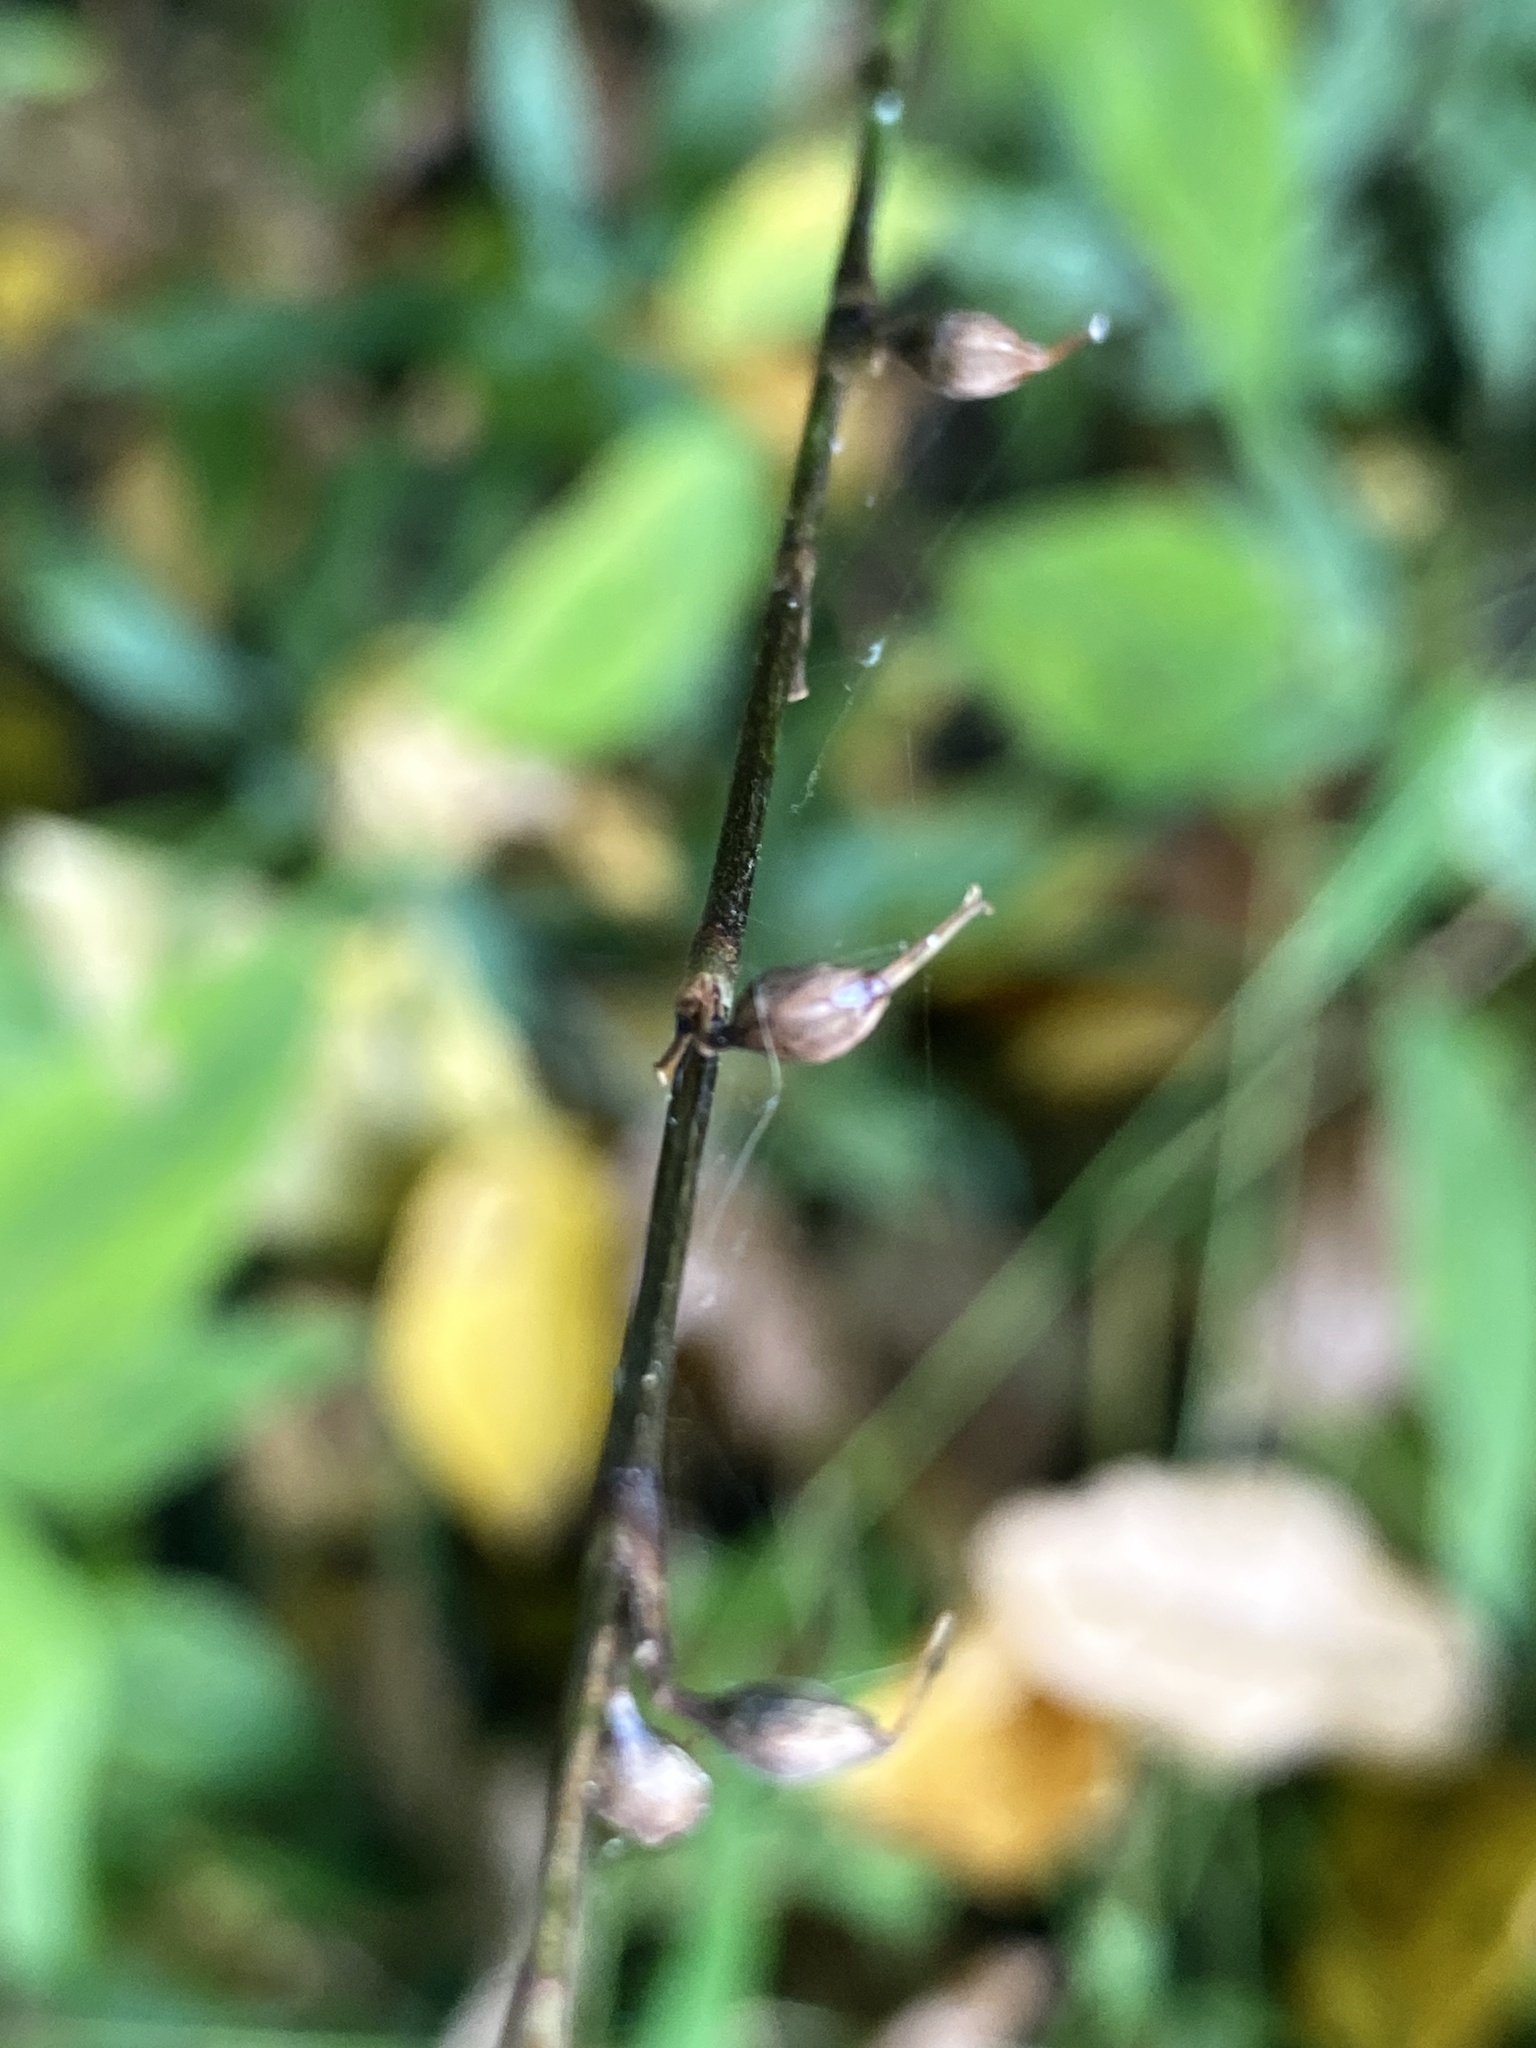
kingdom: Plantae
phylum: Tracheophyta
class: Magnoliopsida
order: Caryophyllales
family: Polygonaceae
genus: Persicaria
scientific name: Persicaria virginiana
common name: Jumpseed
